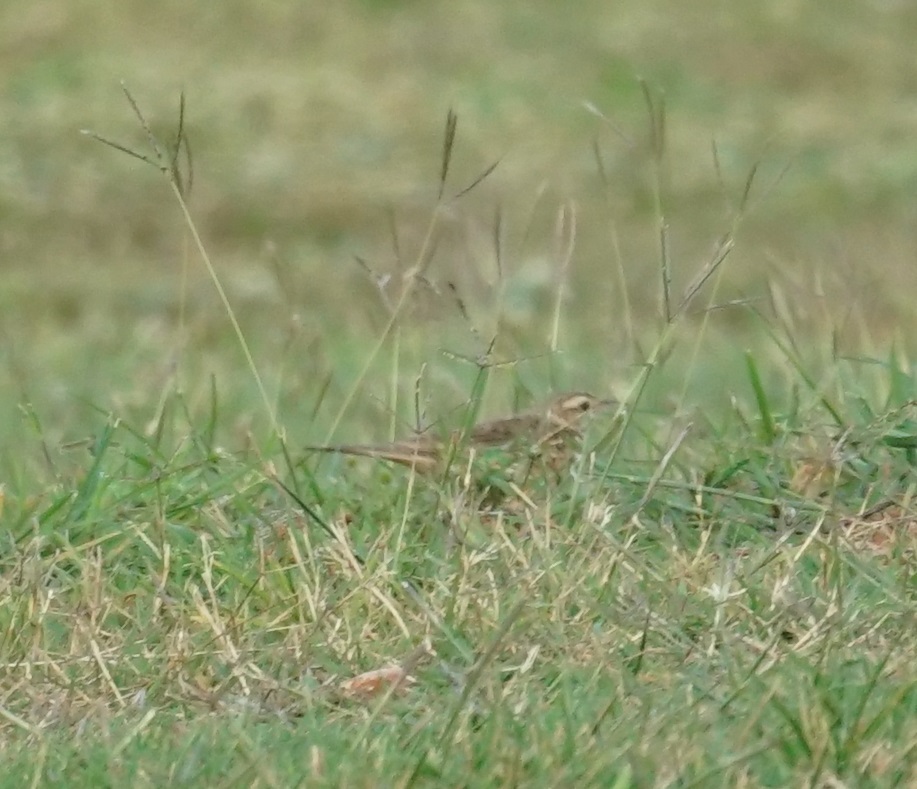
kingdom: Animalia
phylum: Chordata
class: Aves
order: Passeriformes
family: Motacillidae
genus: Anthus
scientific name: Anthus australis
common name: Australian pipit
